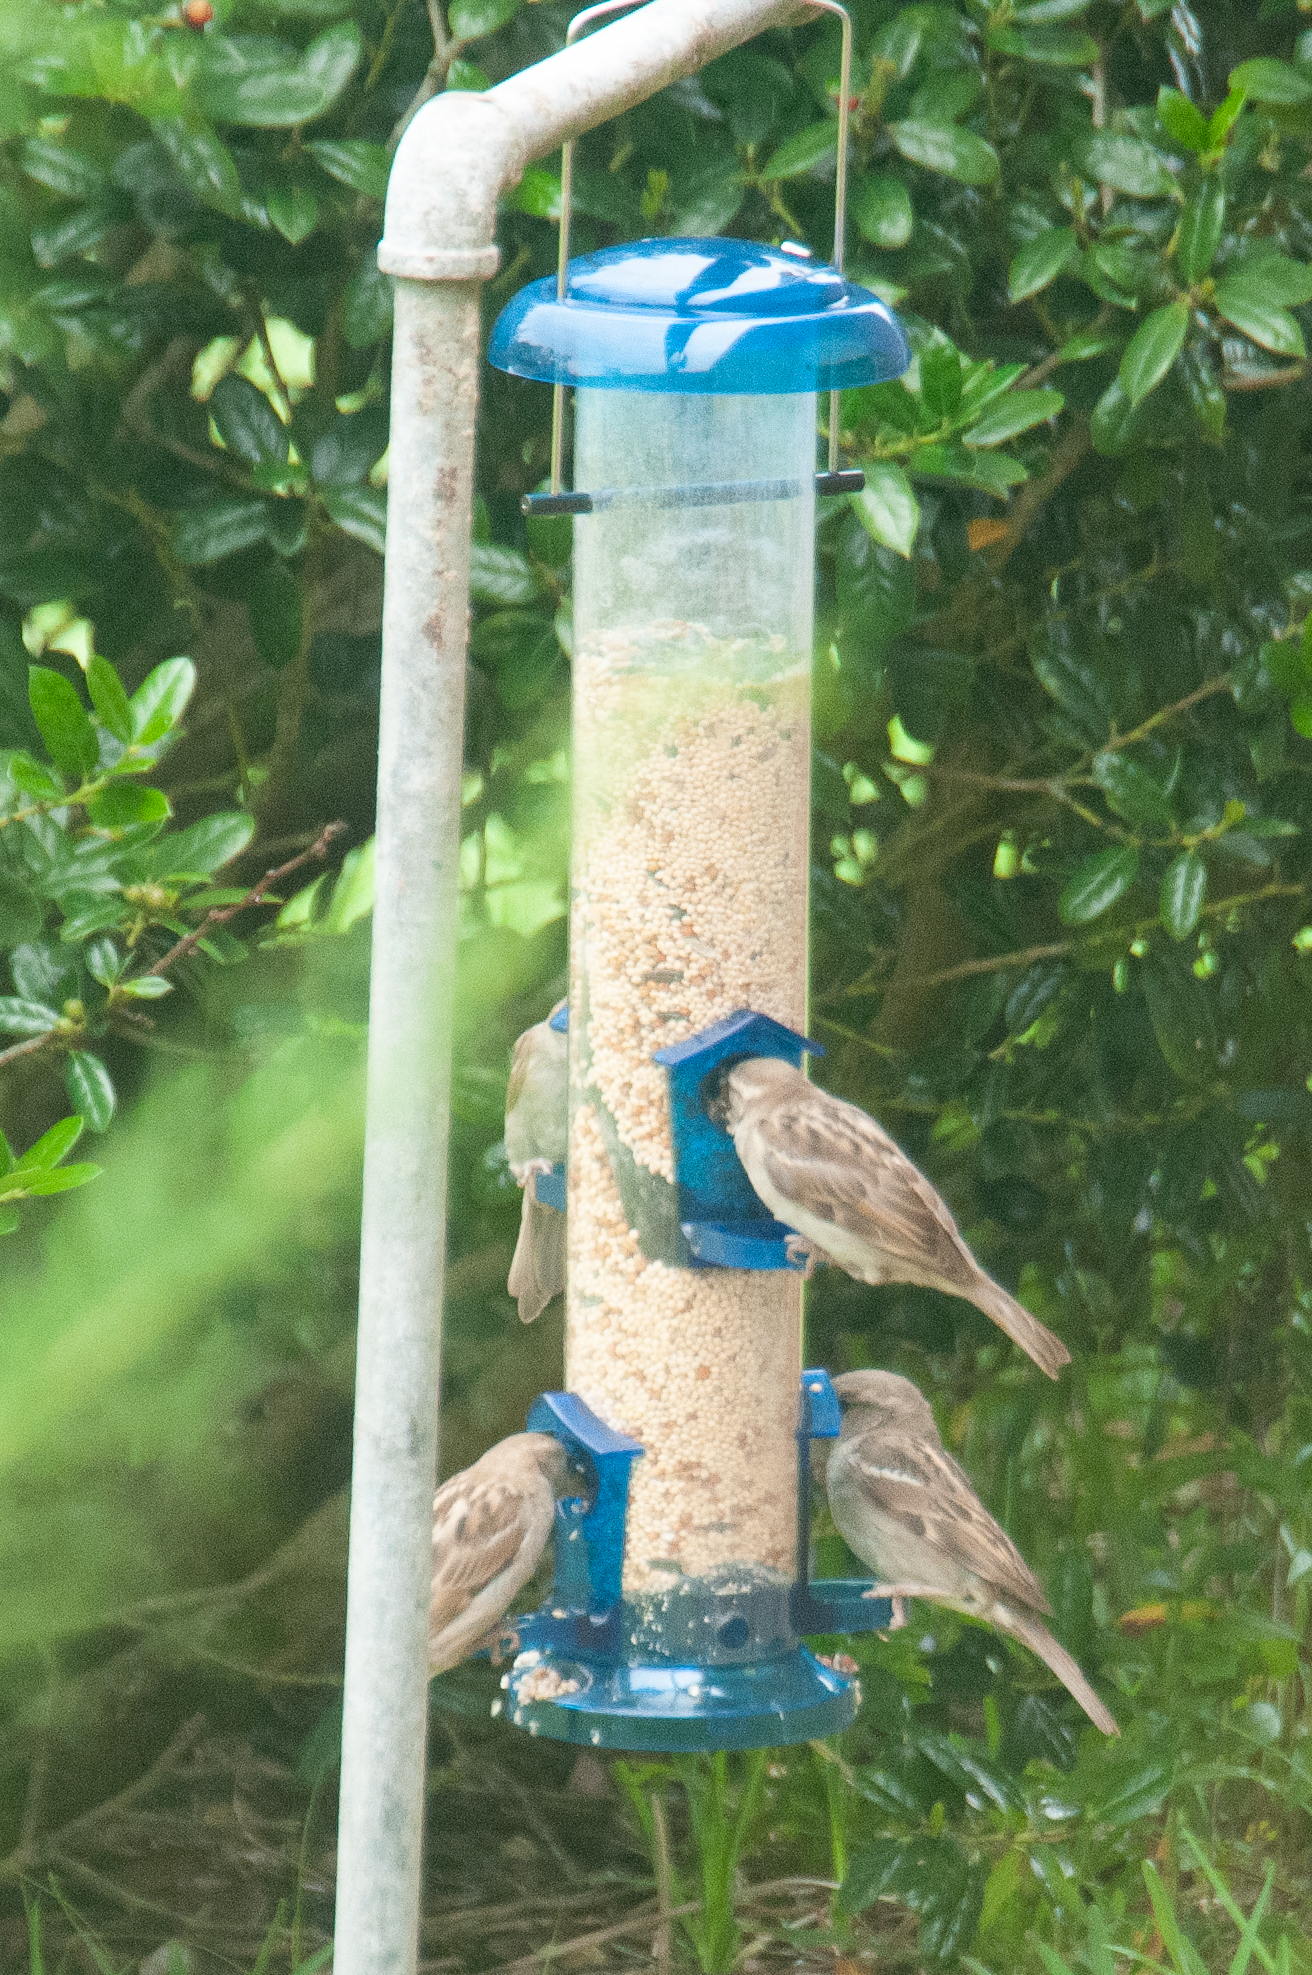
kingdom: Animalia
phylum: Chordata
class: Aves
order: Passeriformes
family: Passeridae
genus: Passer
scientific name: Passer domesticus
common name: House sparrow
